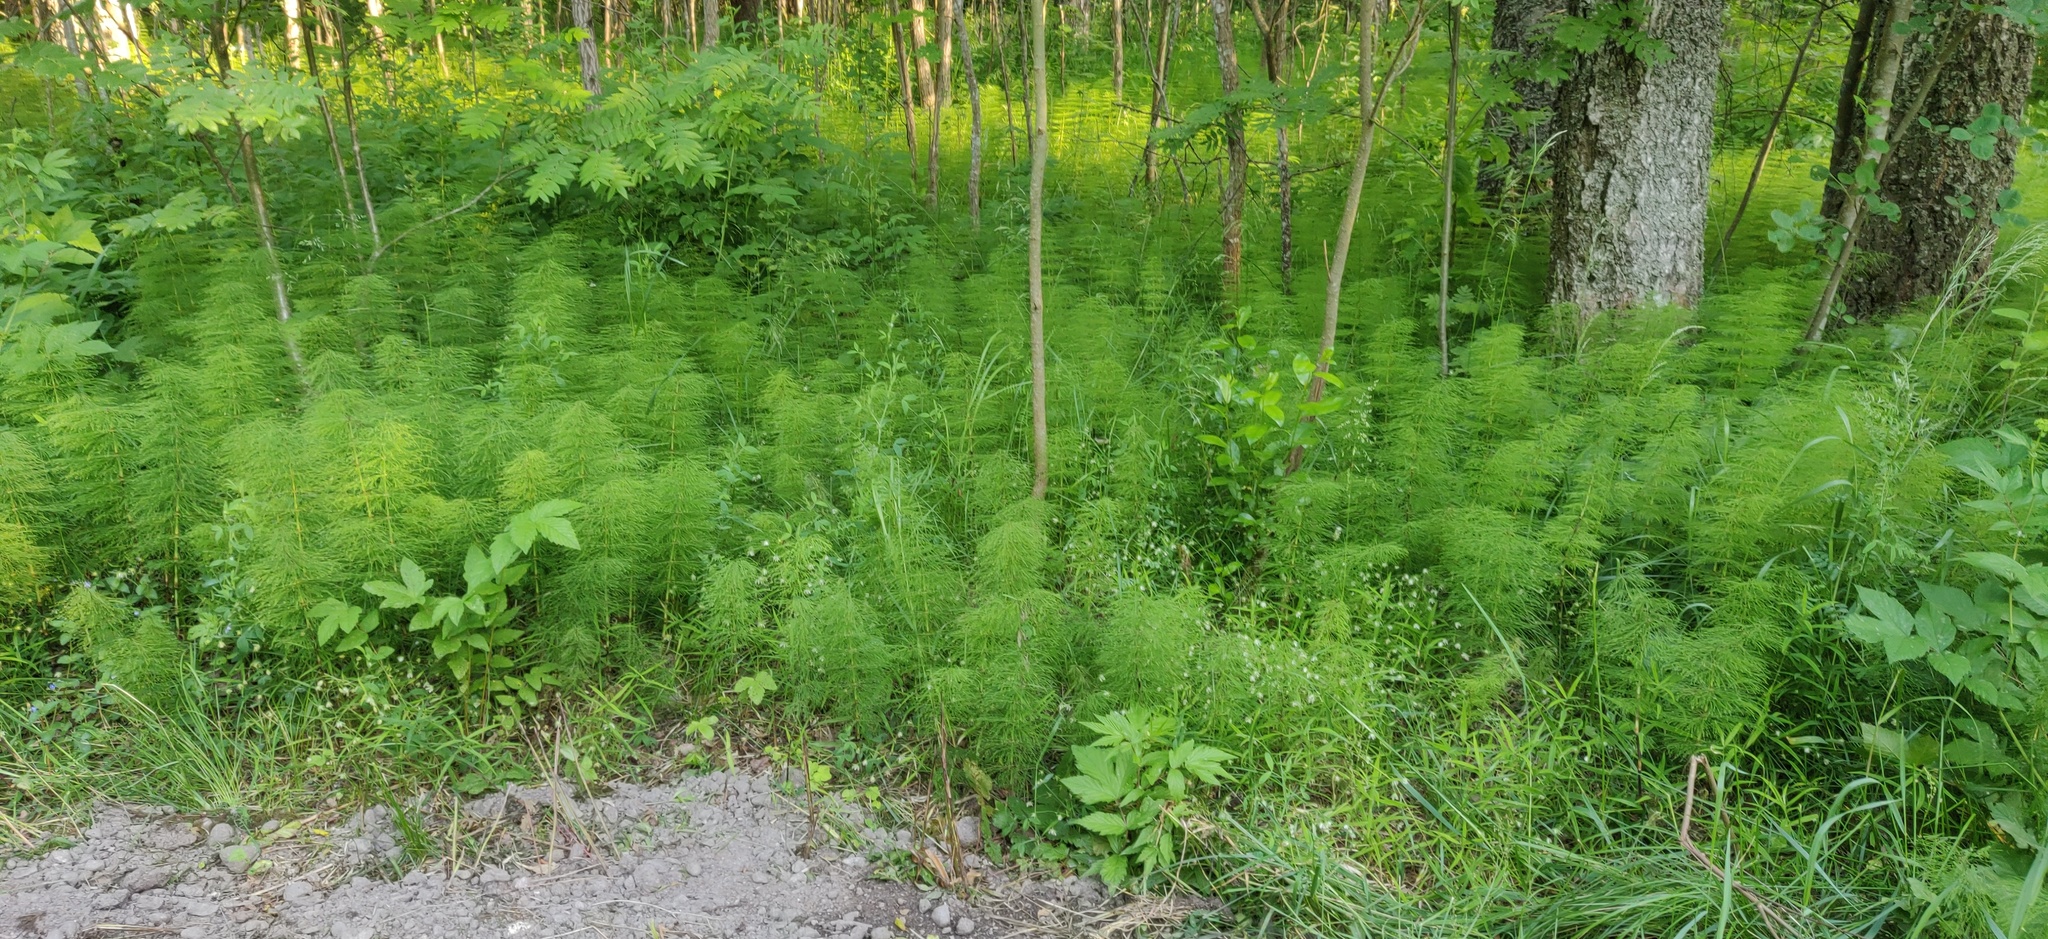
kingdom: Plantae
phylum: Tracheophyta
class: Polypodiopsida
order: Equisetales
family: Equisetaceae
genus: Equisetum
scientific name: Equisetum sylvaticum
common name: Wood horsetail
